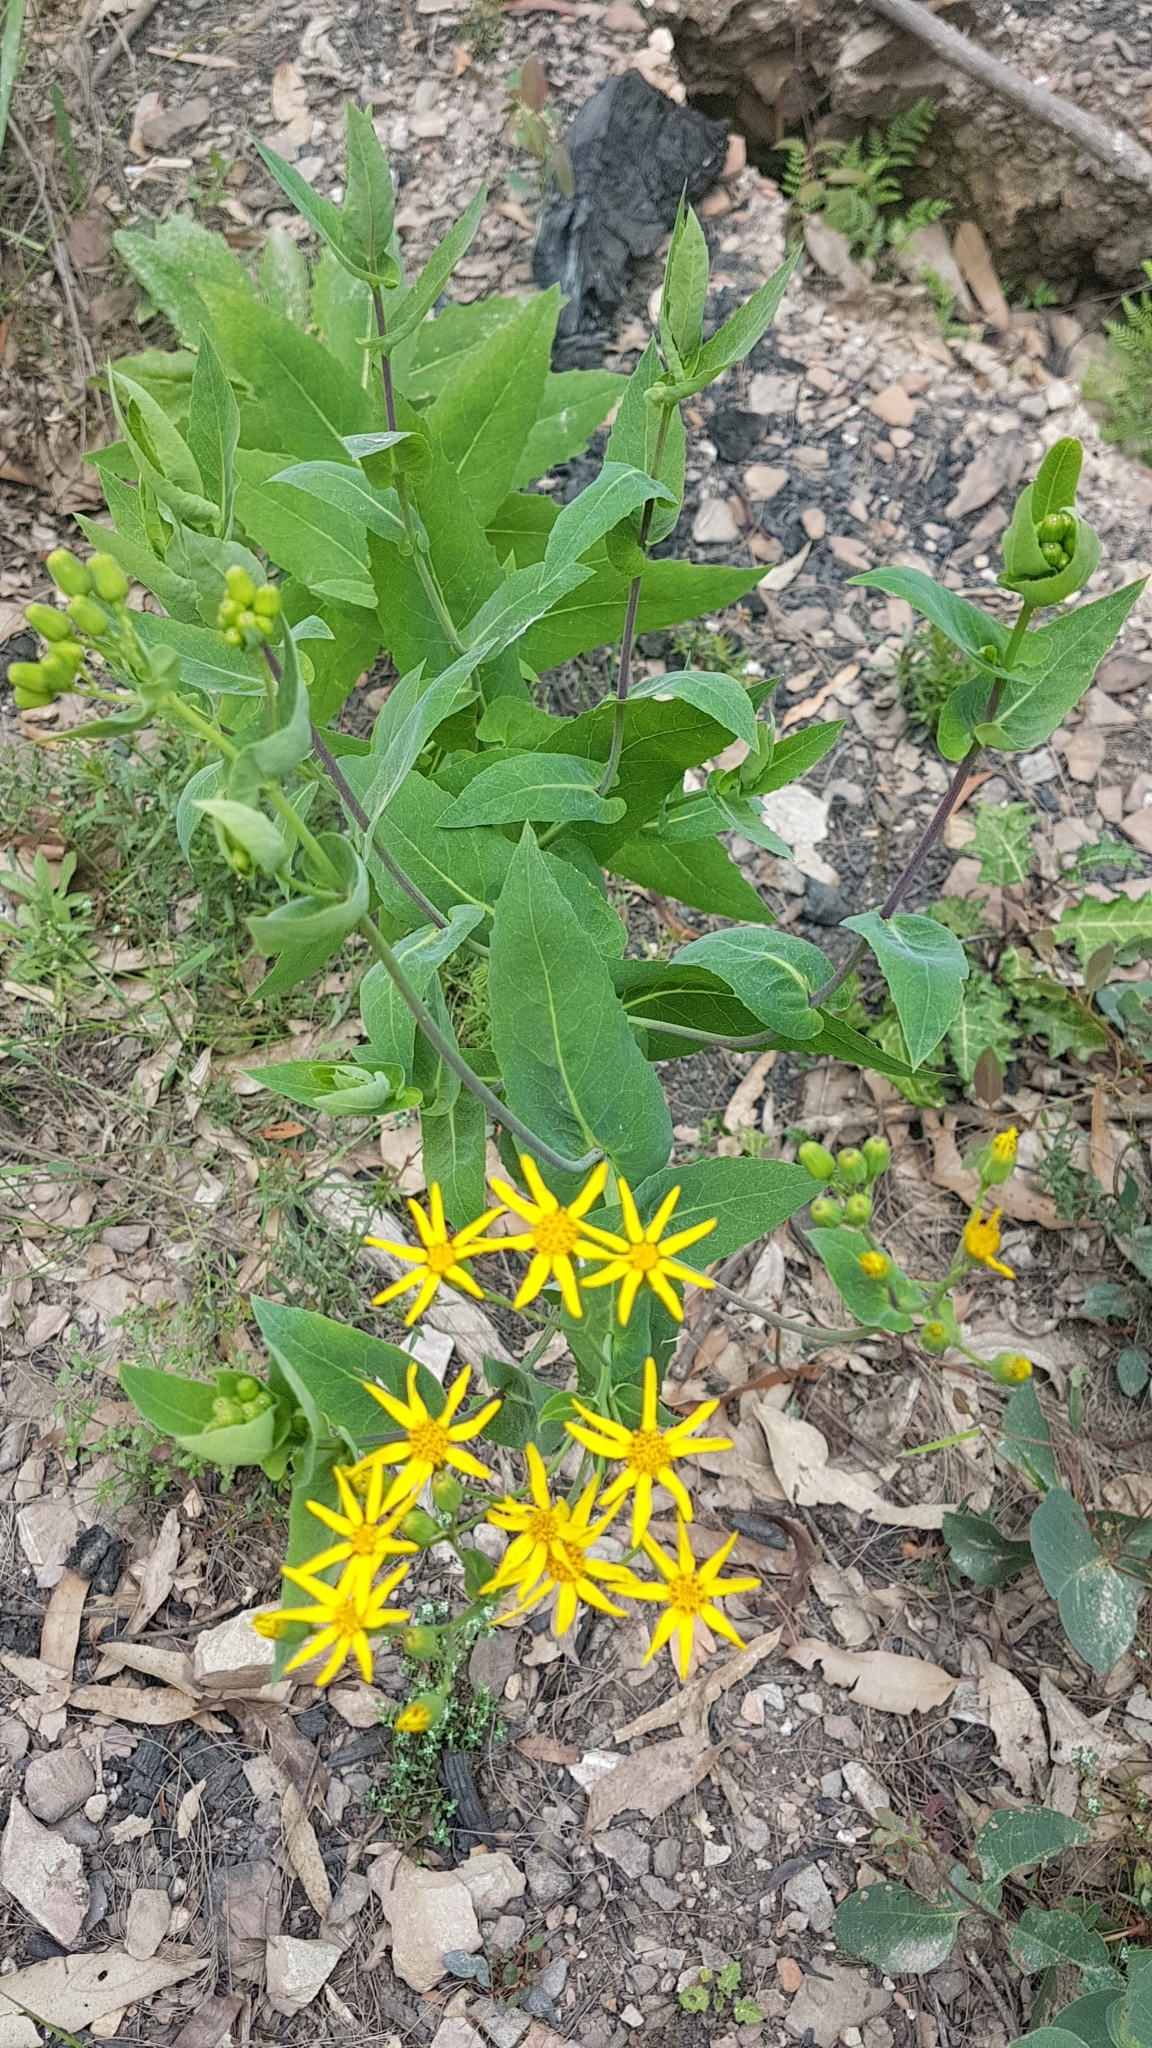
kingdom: Plantae
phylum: Tracheophyta
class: Magnoliopsida
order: Asterales
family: Asteraceae
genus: Lordhowea
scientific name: Lordhowea velleioides
